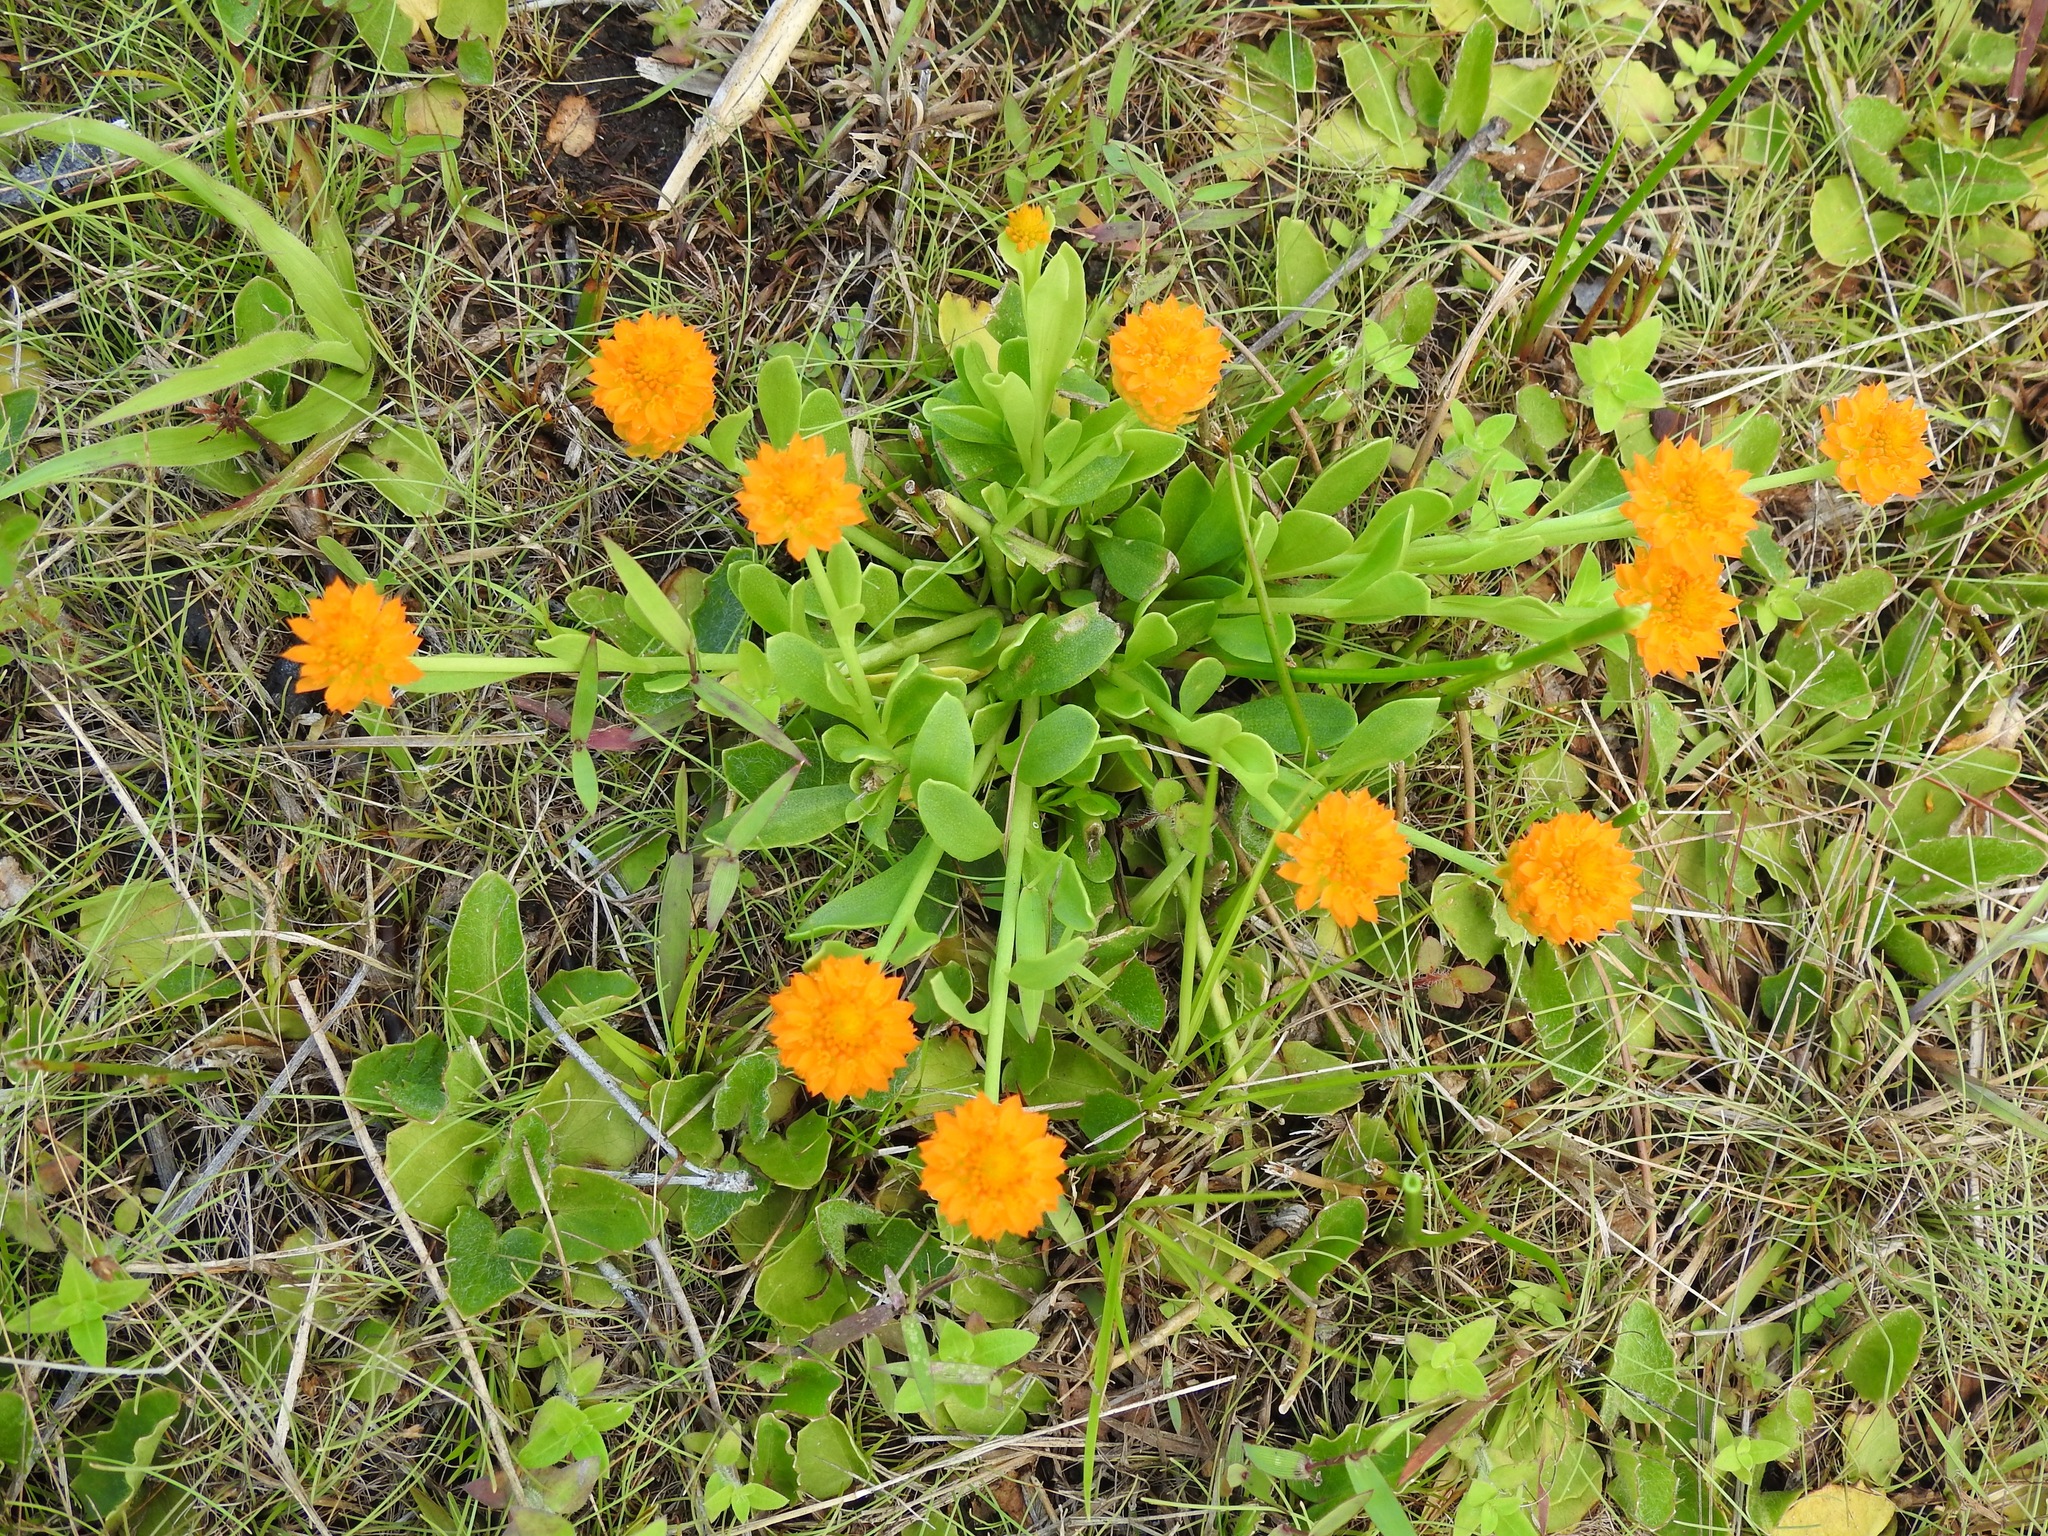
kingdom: Plantae
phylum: Tracheophyta
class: Magnoliopsida
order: Fabales
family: Polygalaceae
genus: Polygala
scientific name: Polygala lutea
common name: Orange milkwort
